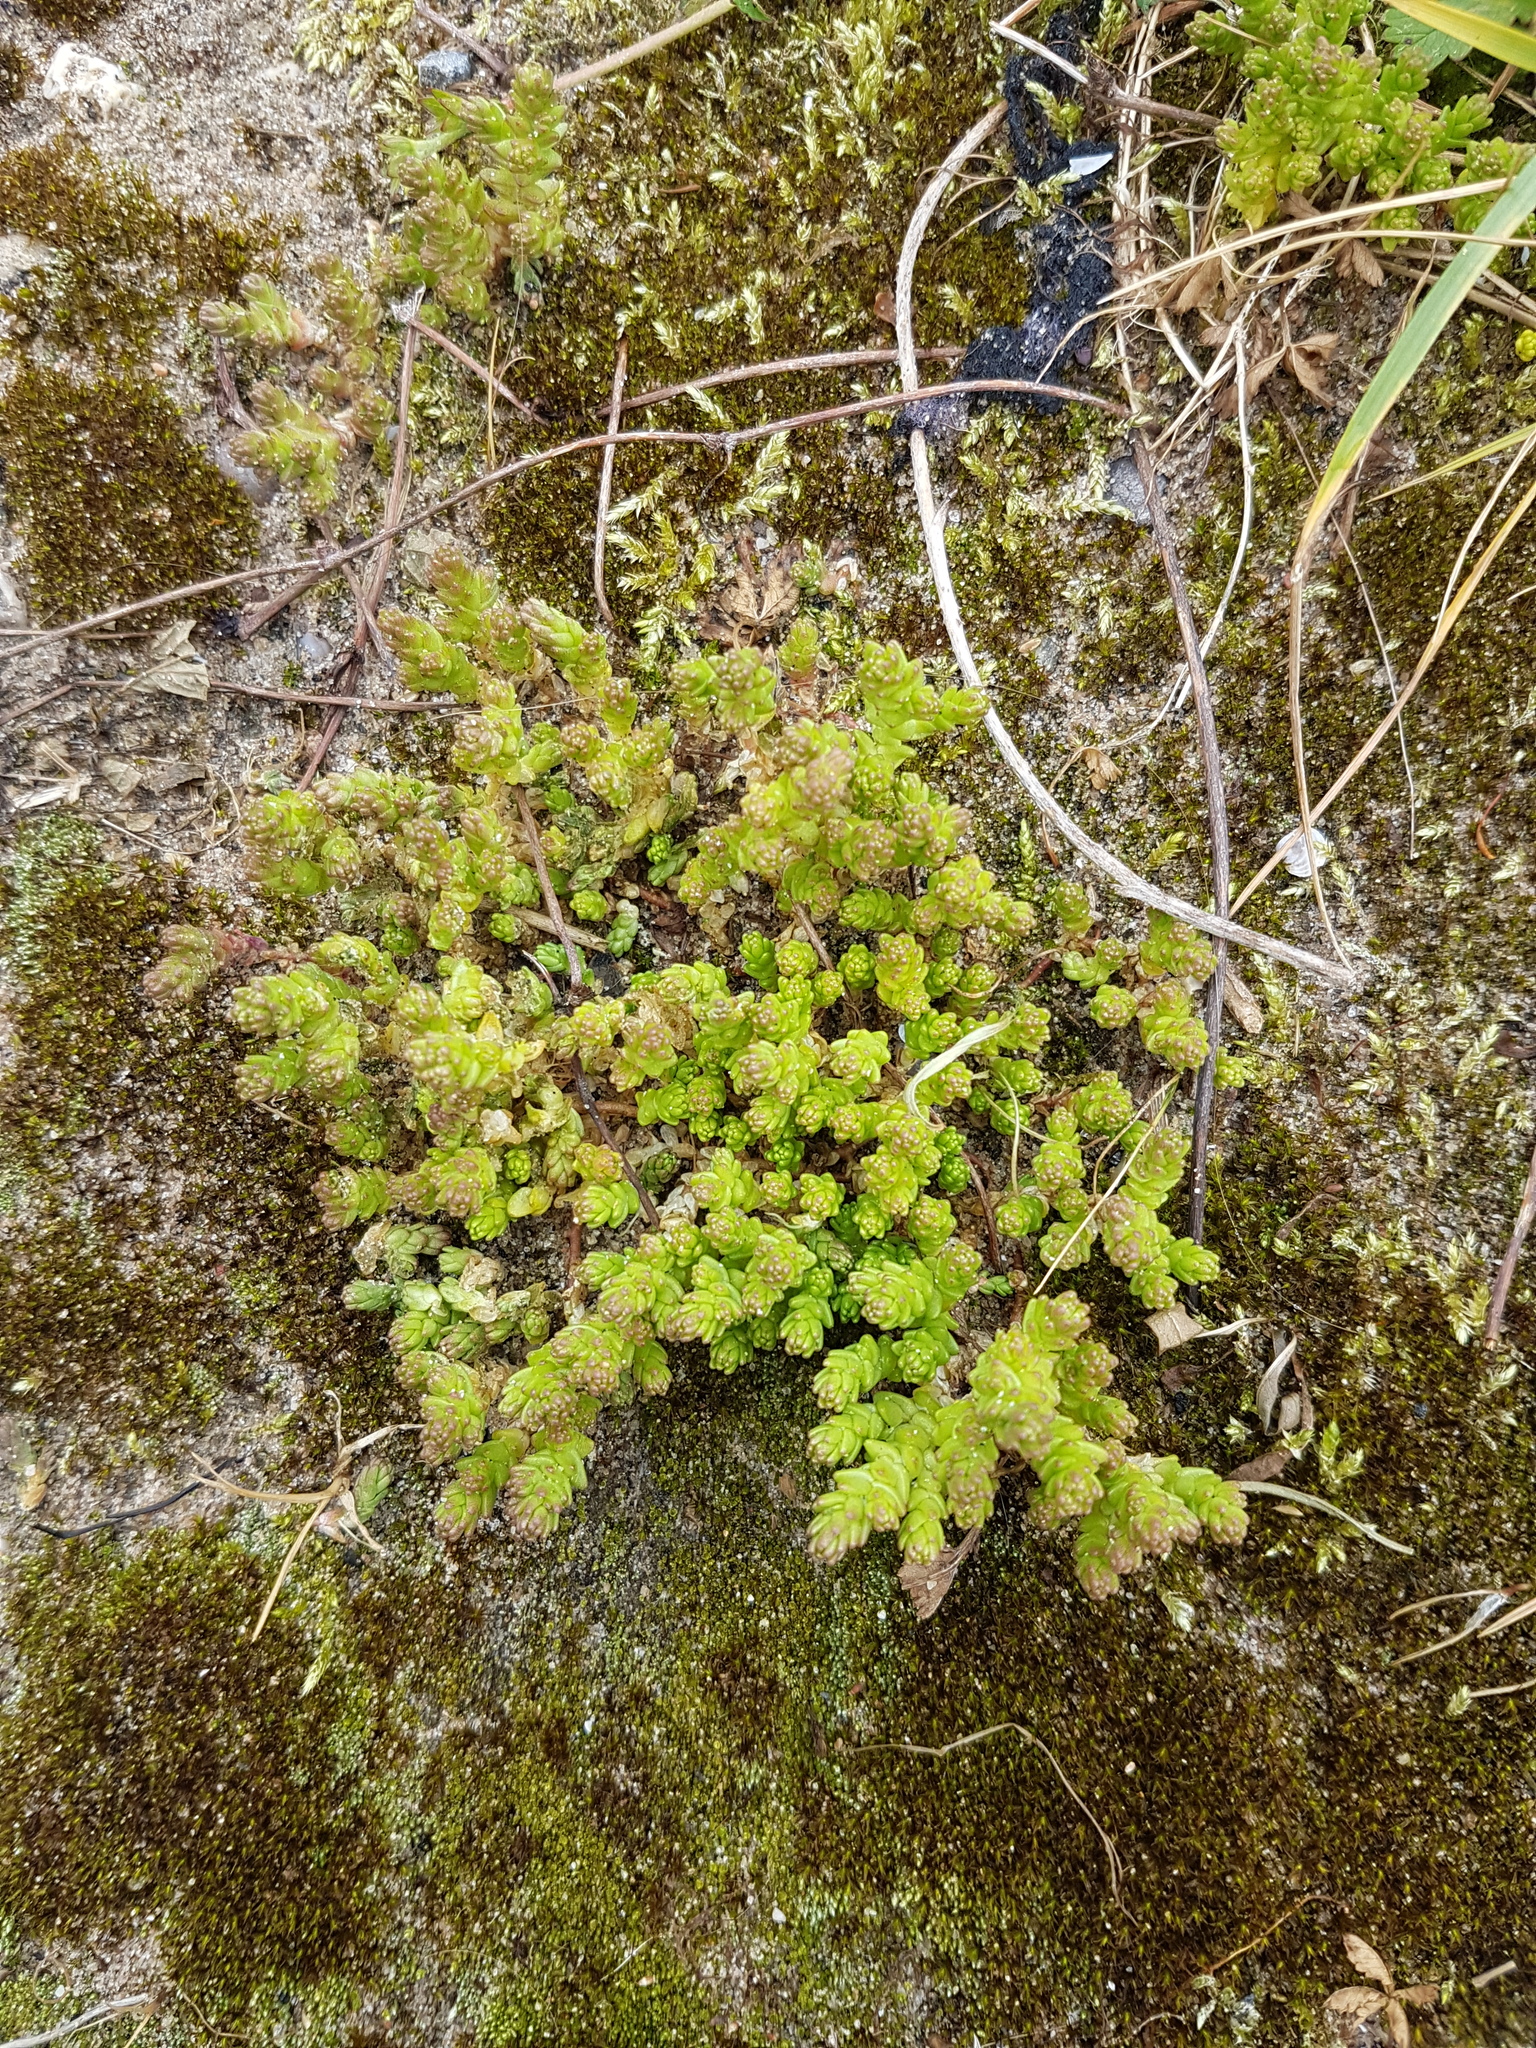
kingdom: Plantae
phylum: Tracheophyta
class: Magnoliopsida
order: Saxifragales
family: Crassulaceae
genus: Sedum
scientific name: Sedum acre
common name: Biting stonecrop
